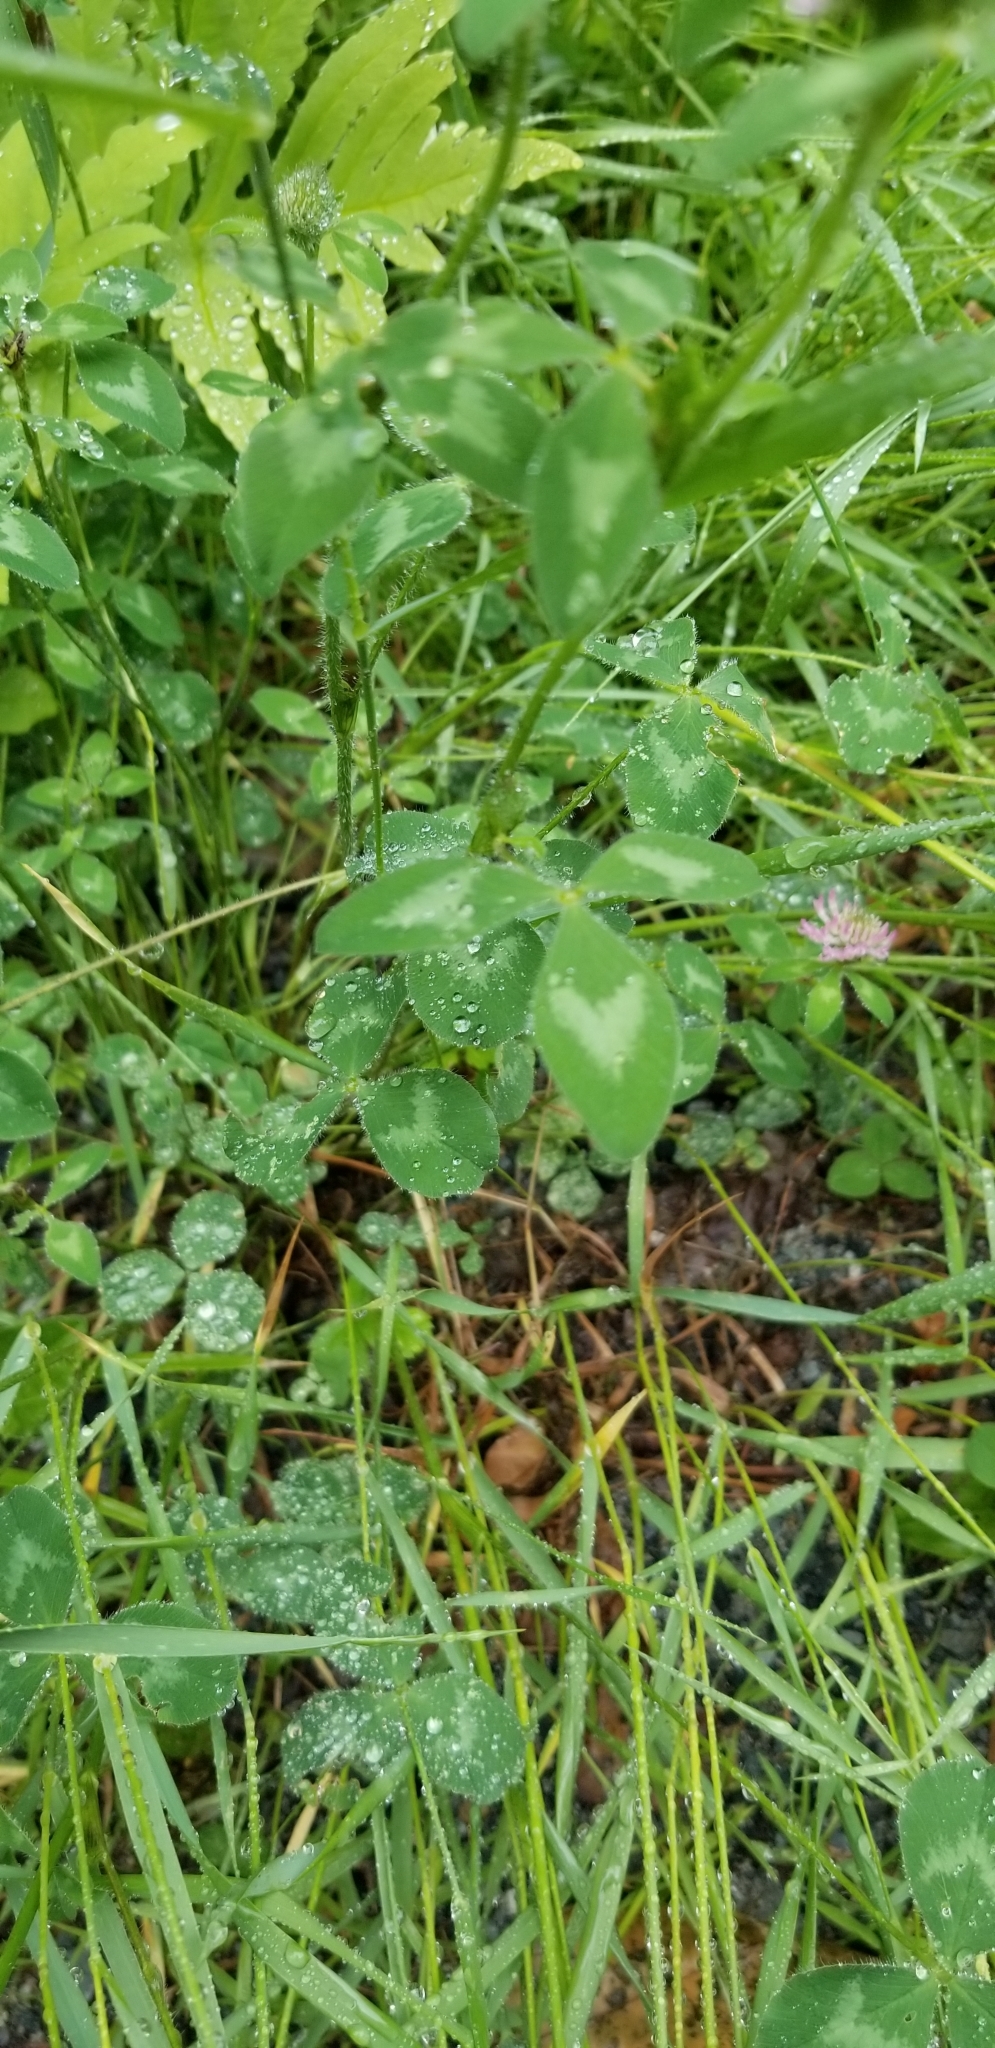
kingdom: Plantae
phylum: Tracheophyta
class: Magnoliopsida
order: Fabales
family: Fabaceae
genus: Trifolium
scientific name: Trifolium pratense
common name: Red clover
